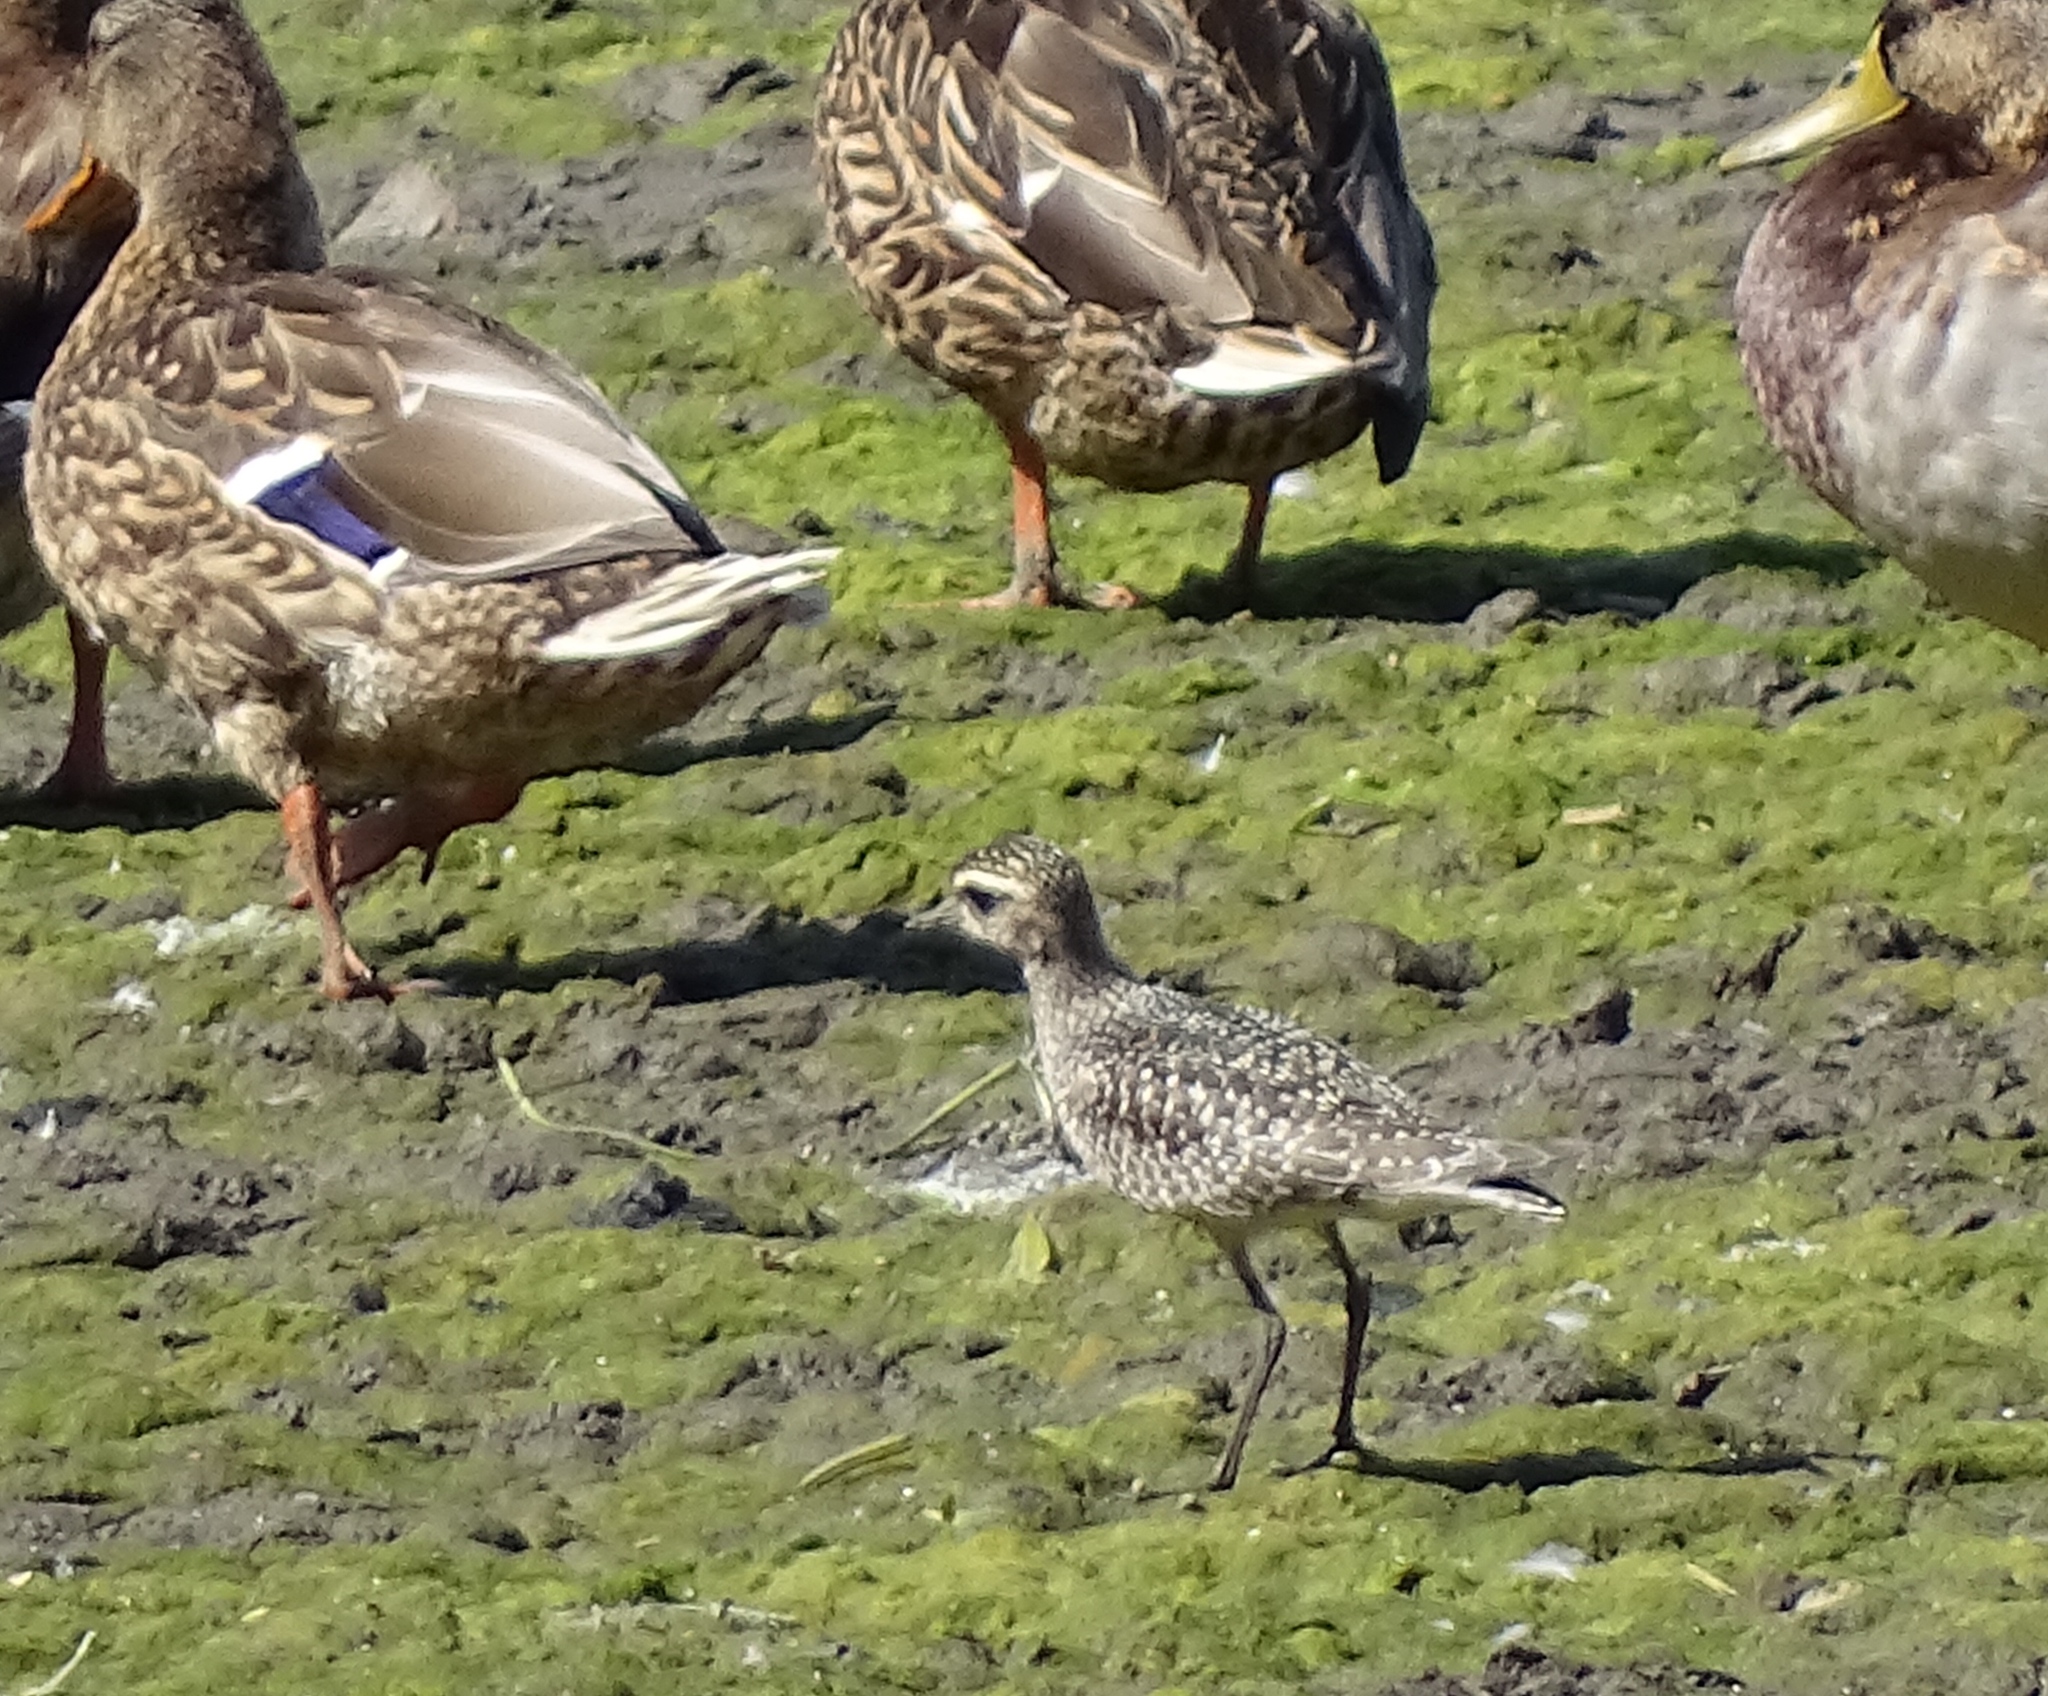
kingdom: Animalia
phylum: Chordata
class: Aves
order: Charadriiformes
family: Charadriidae
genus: Pluvialis
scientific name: Pluvialis dominica
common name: American golden plover
